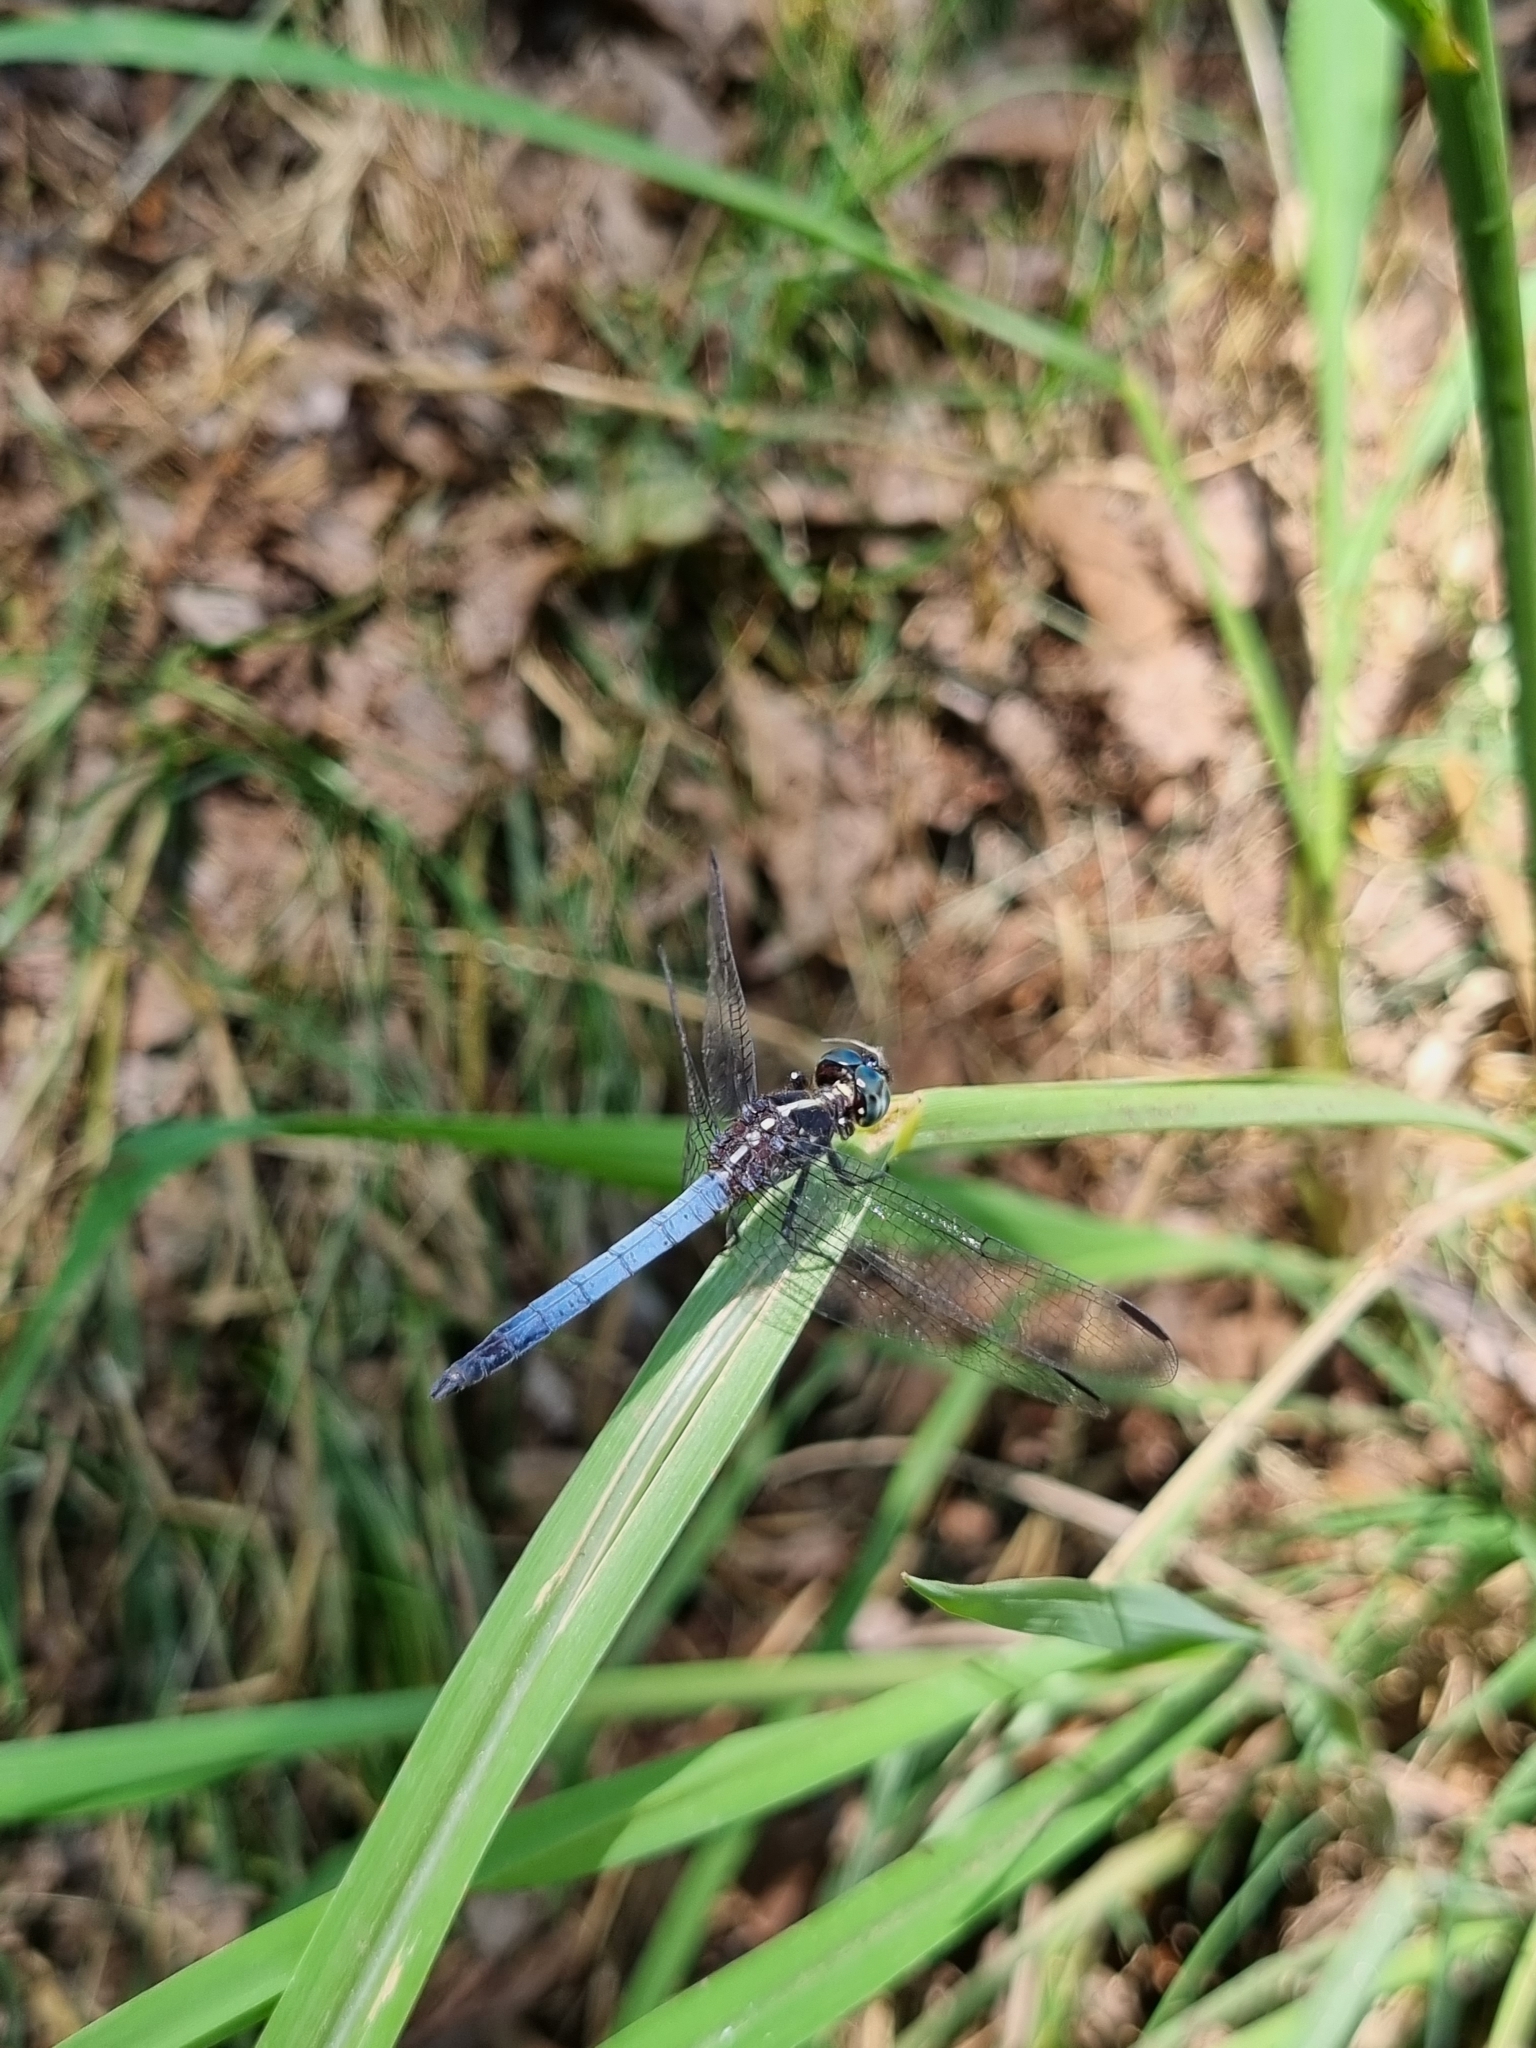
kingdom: Animalia
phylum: Arthropoda
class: Insecta
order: Odonata
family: Libellulidae
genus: Cannaphila
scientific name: Cannaphila vibex
